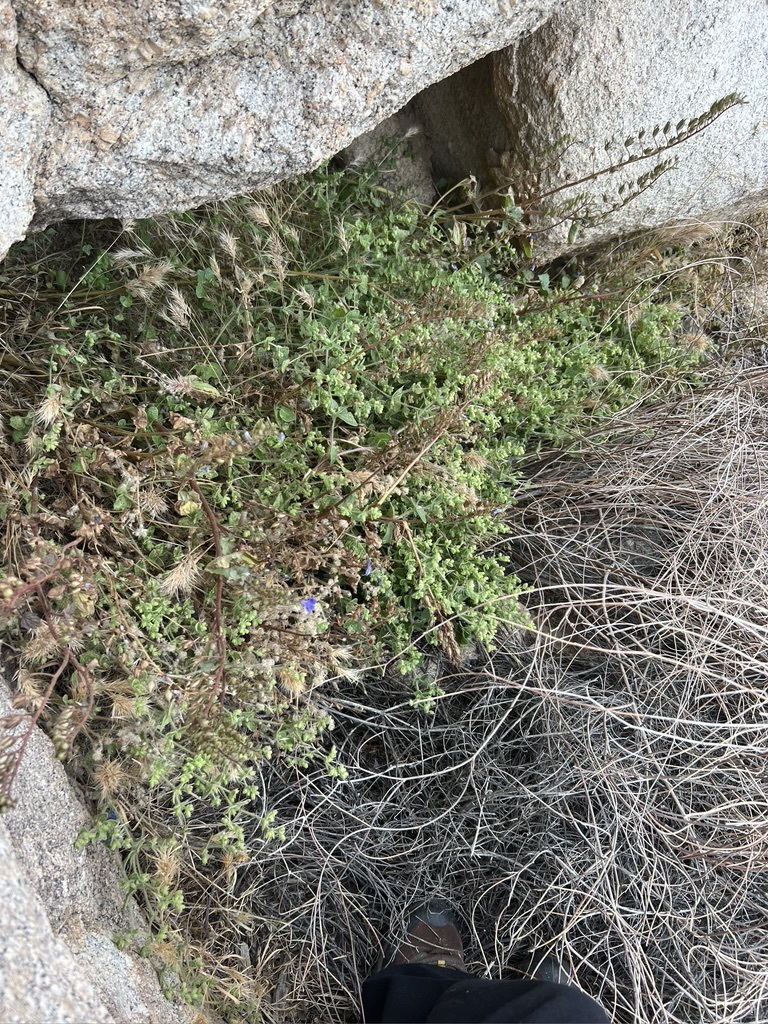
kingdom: Plantae
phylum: Tracheophyta
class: Magnoliopsida
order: Boraginales
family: Hydrophyllaceae
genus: Phacelia
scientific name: Phacelia campanularia
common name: California bluebell
